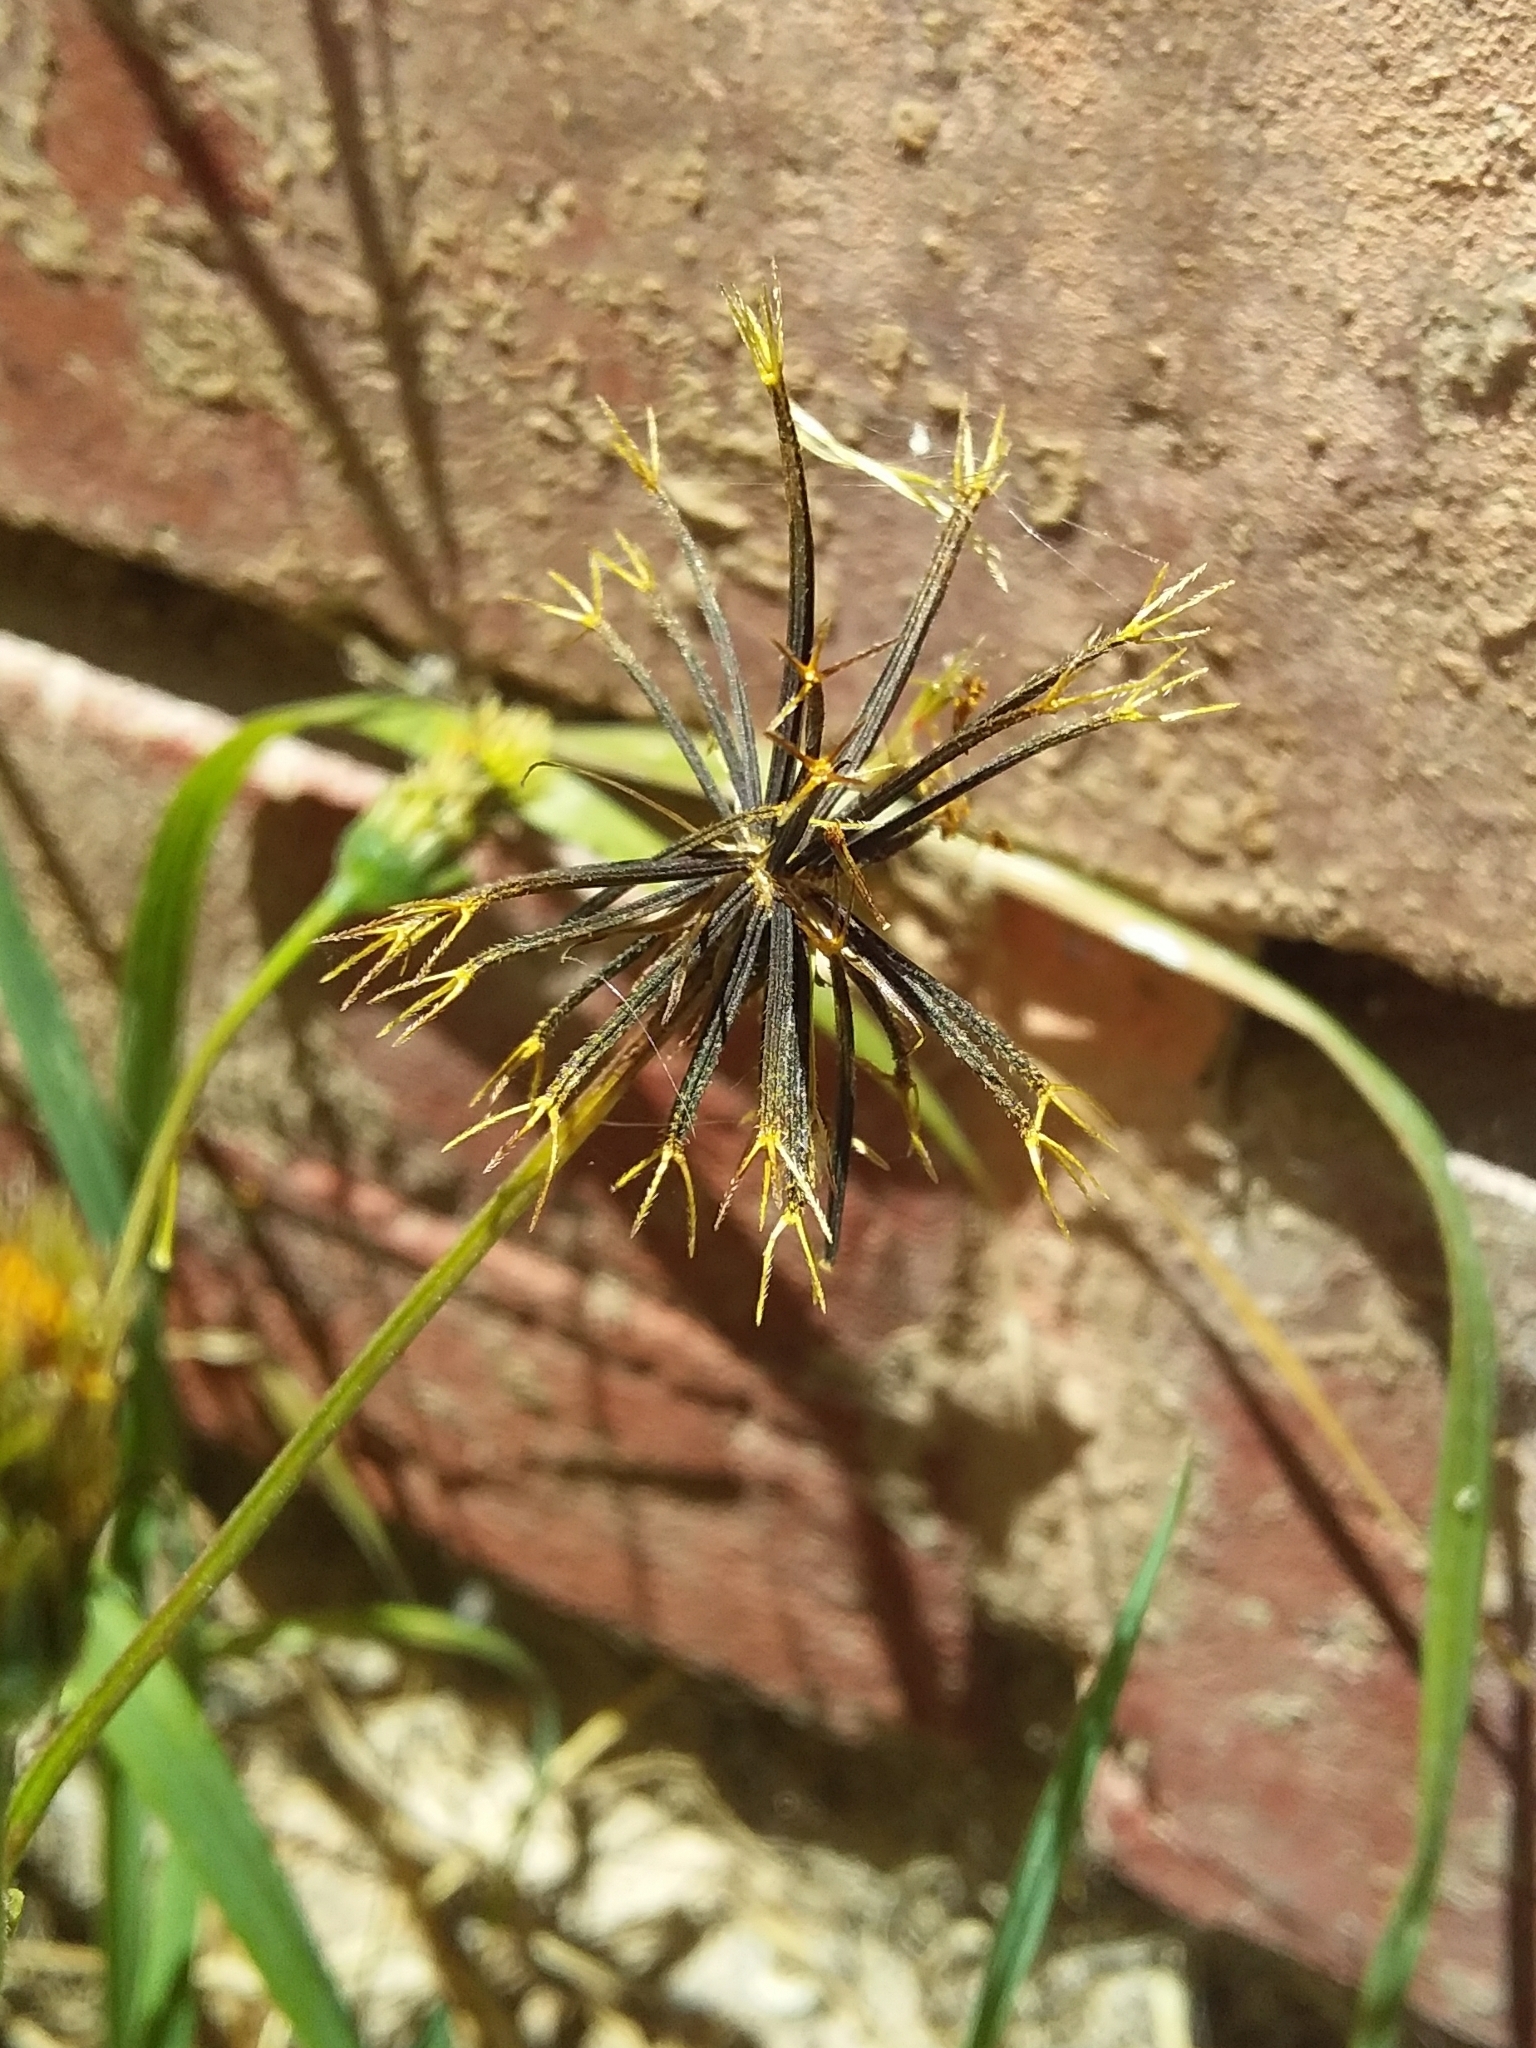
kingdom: Plantae
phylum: Tracheophyta
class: Magnoliopsida
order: Asterales
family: Asteraceae
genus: Bidens
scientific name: Bidens pilosa
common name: Black-jack
